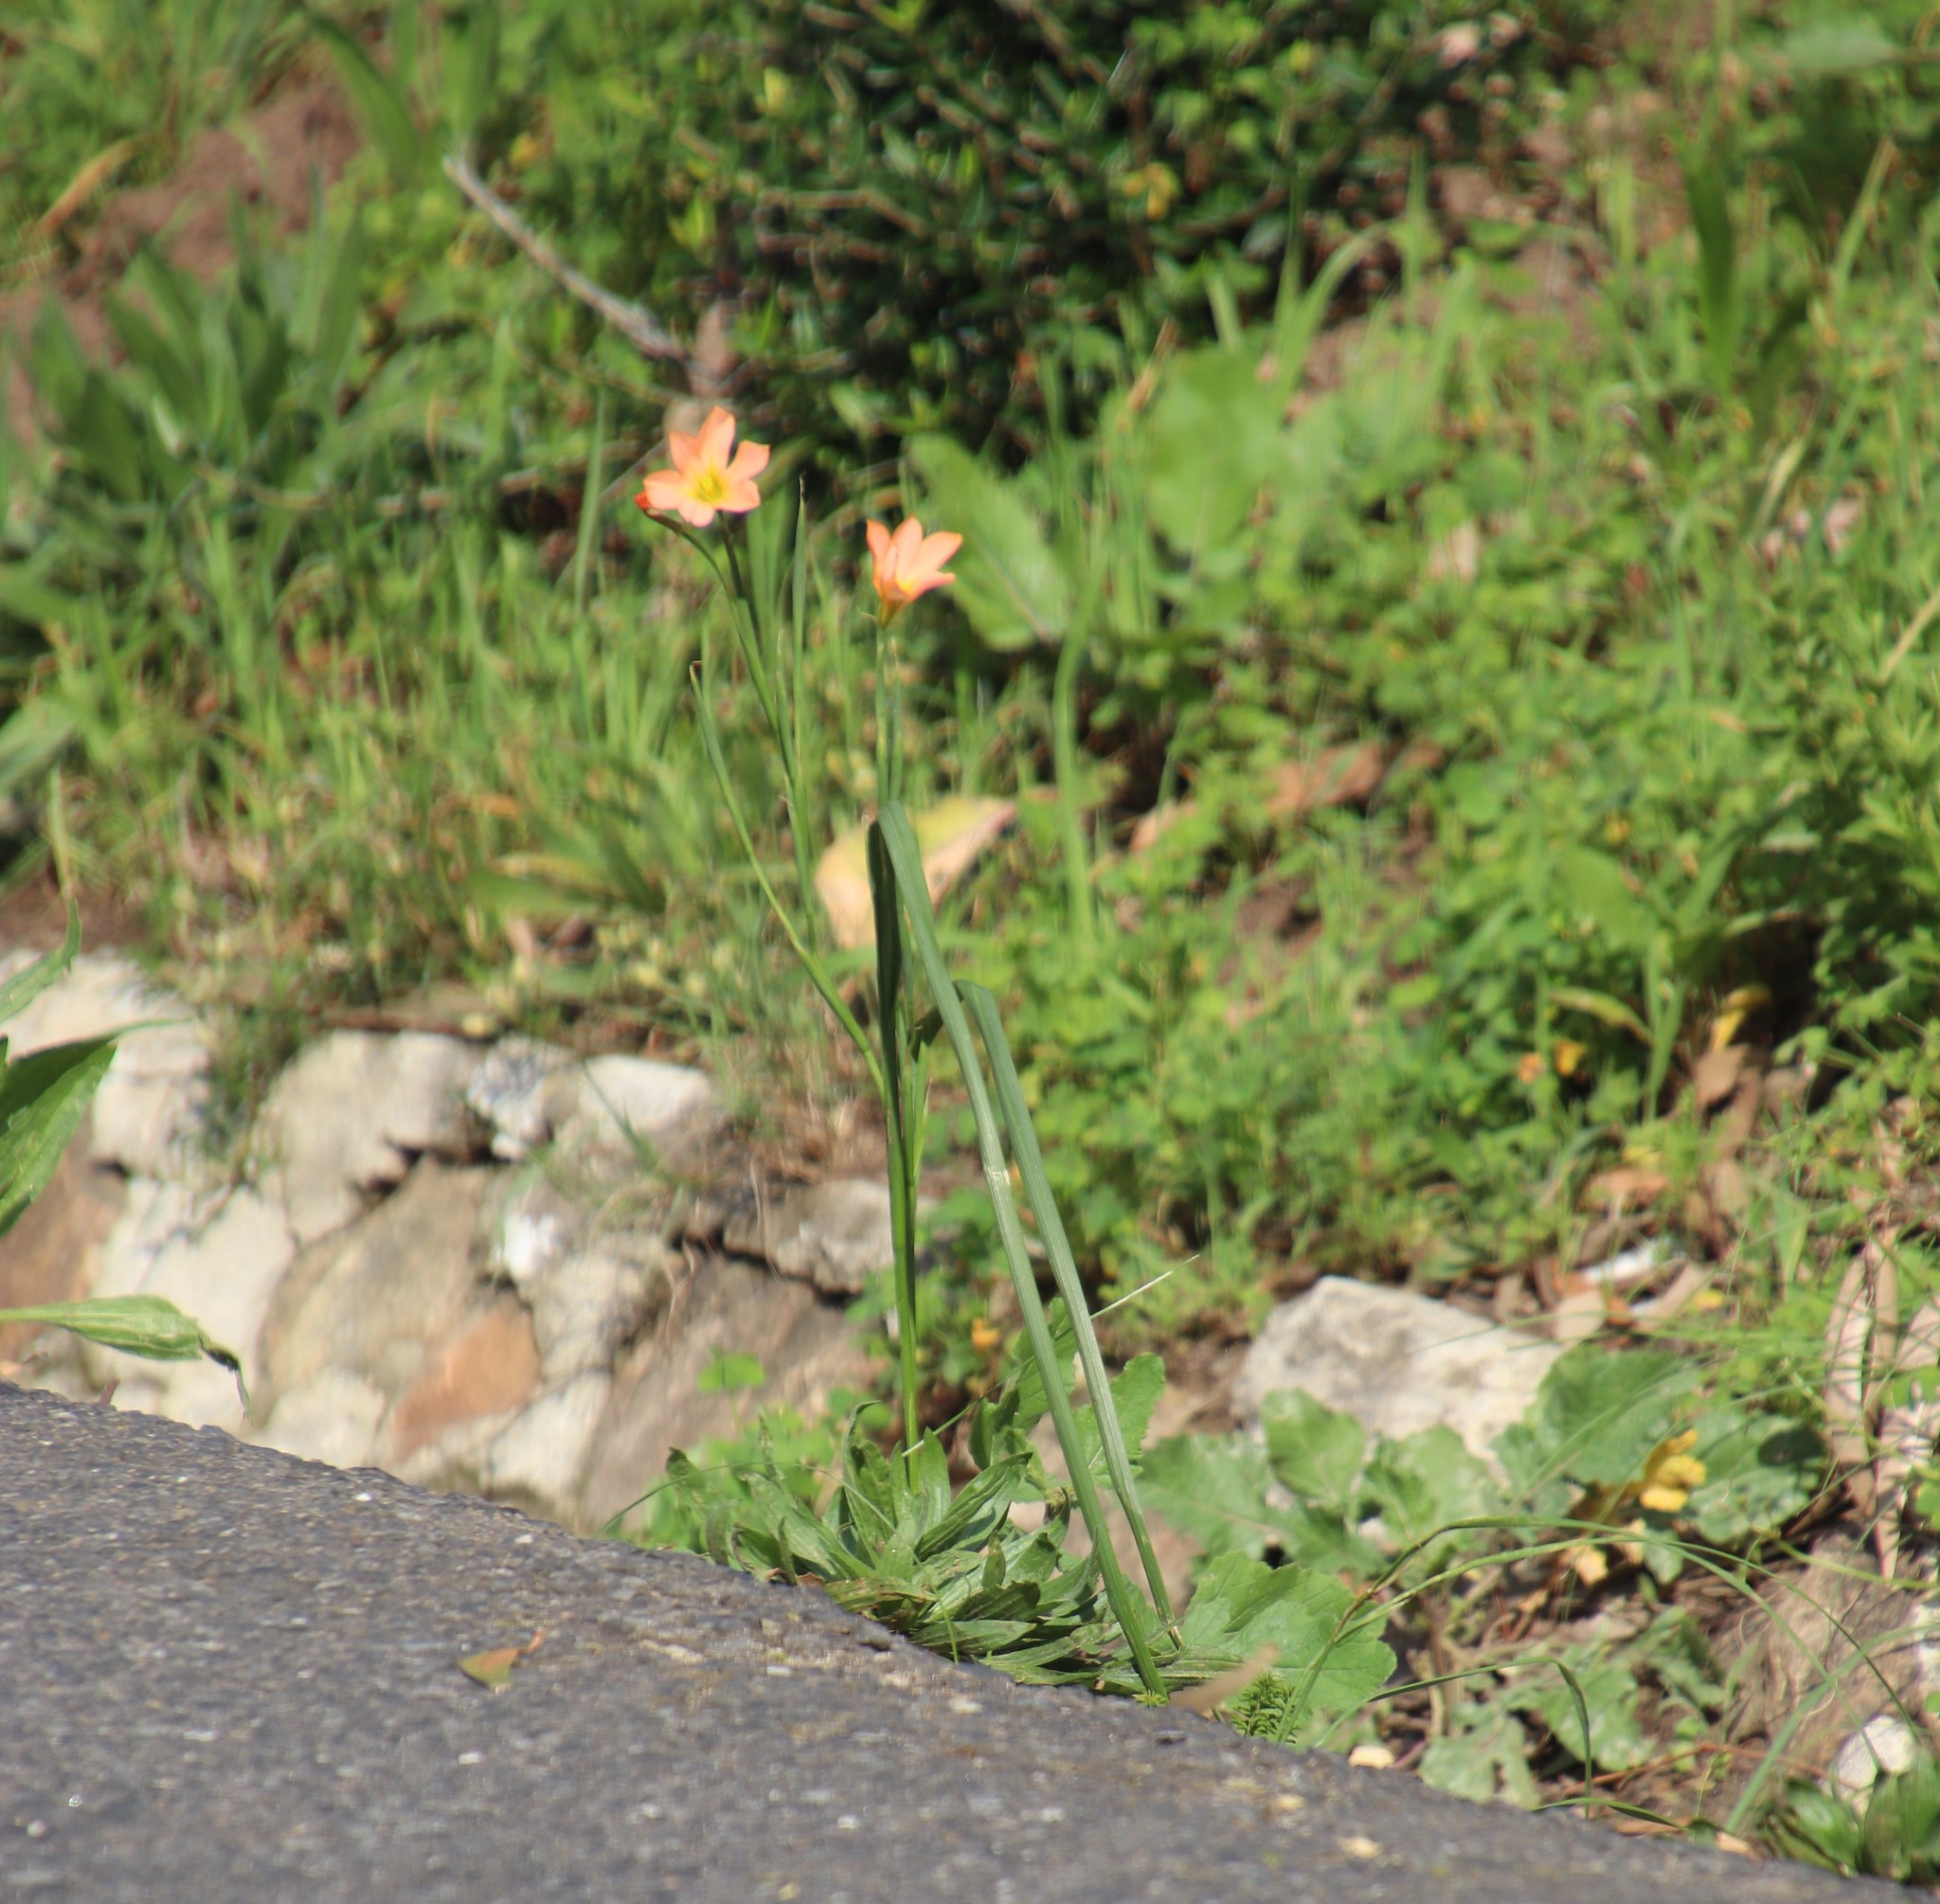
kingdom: Plantae
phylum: Tracheophyta
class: Liliopsida
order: Asparagales
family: Iridaceae
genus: Moraea
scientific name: Moraea flaccida
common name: One-leaf cape-tulip
